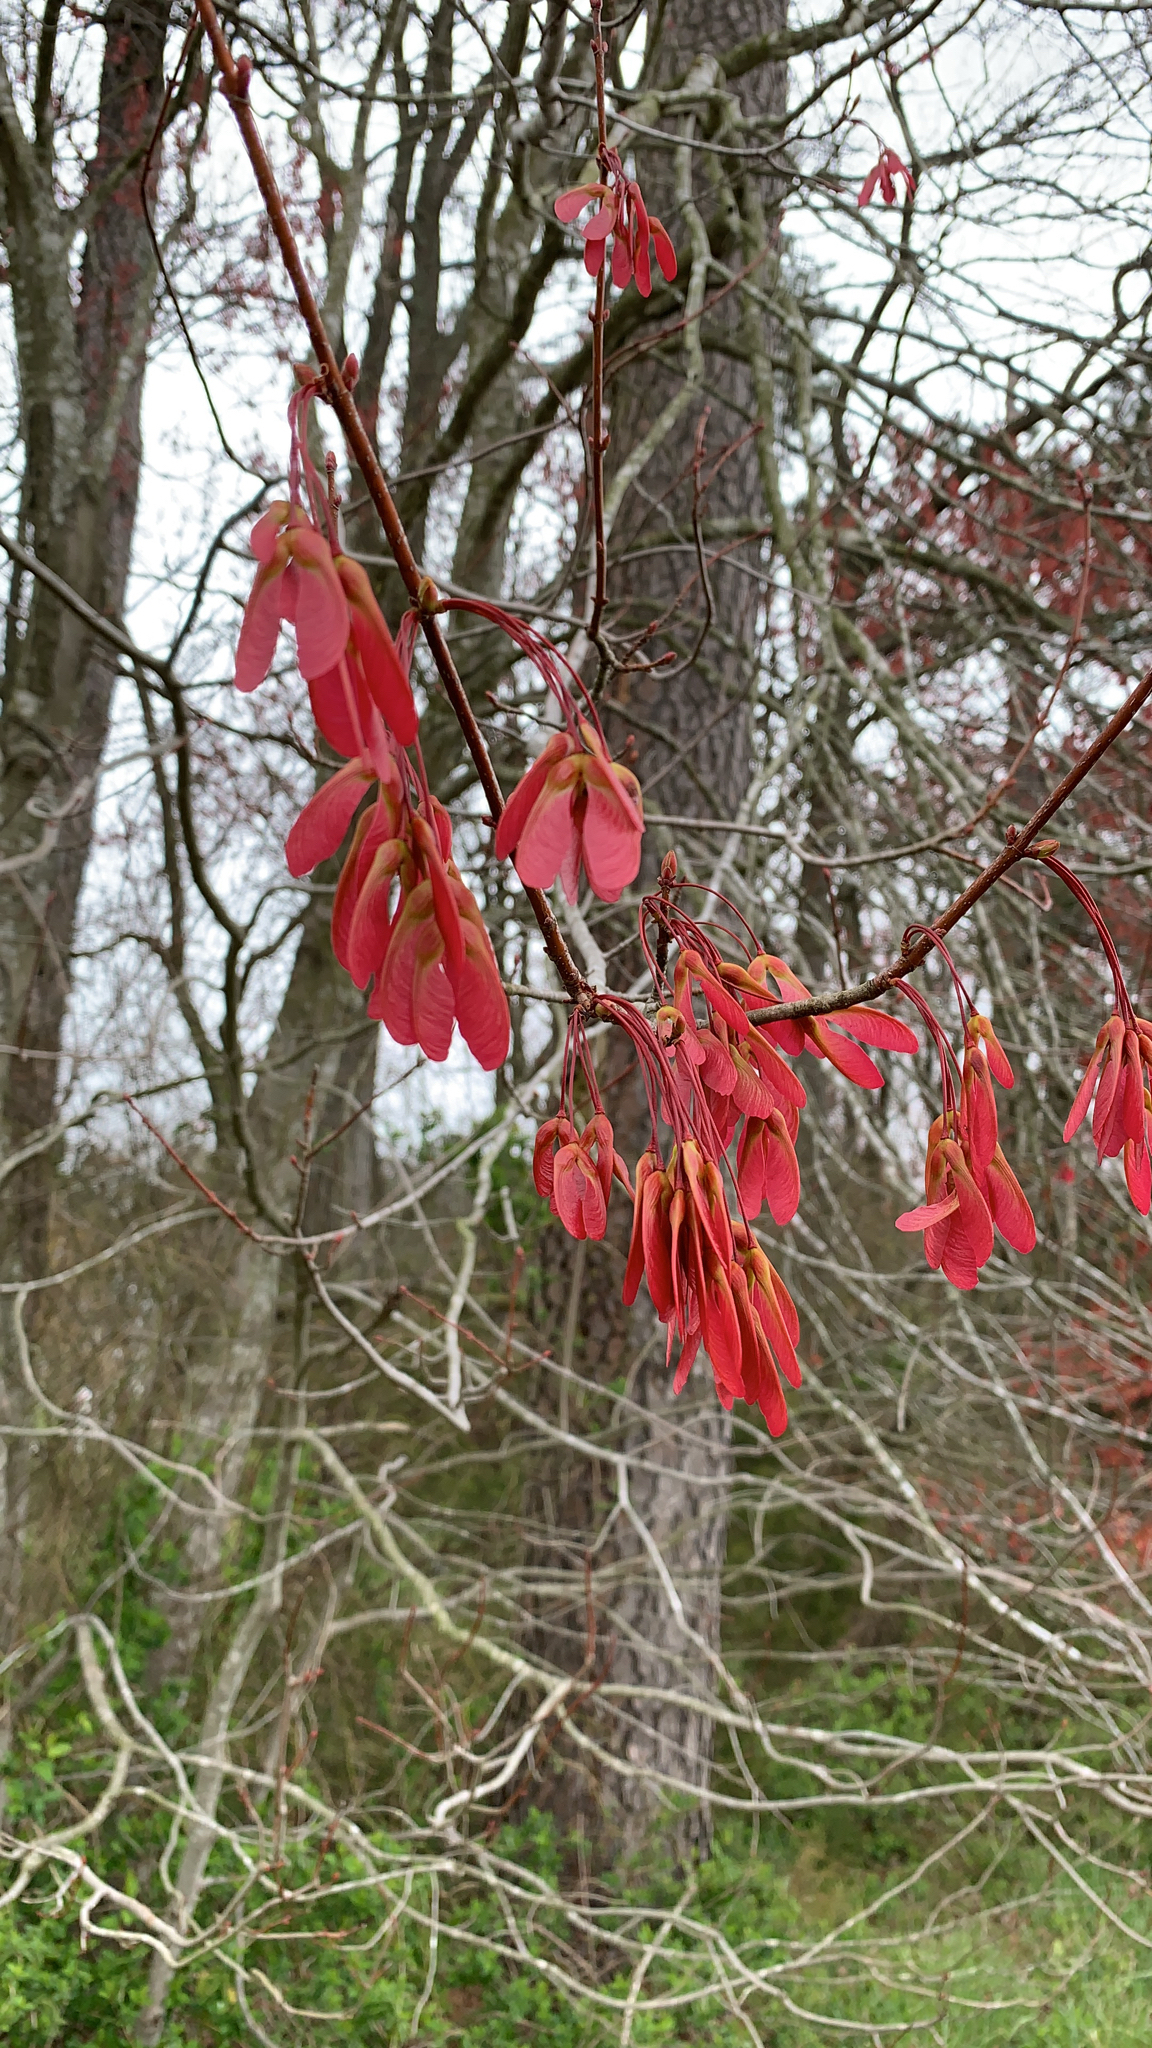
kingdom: Plantae
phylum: Tracheophyta
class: Magnoliopsida
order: Sapindales
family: Sapindaceae
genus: Acer
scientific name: Acer rubrum
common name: Red maple
